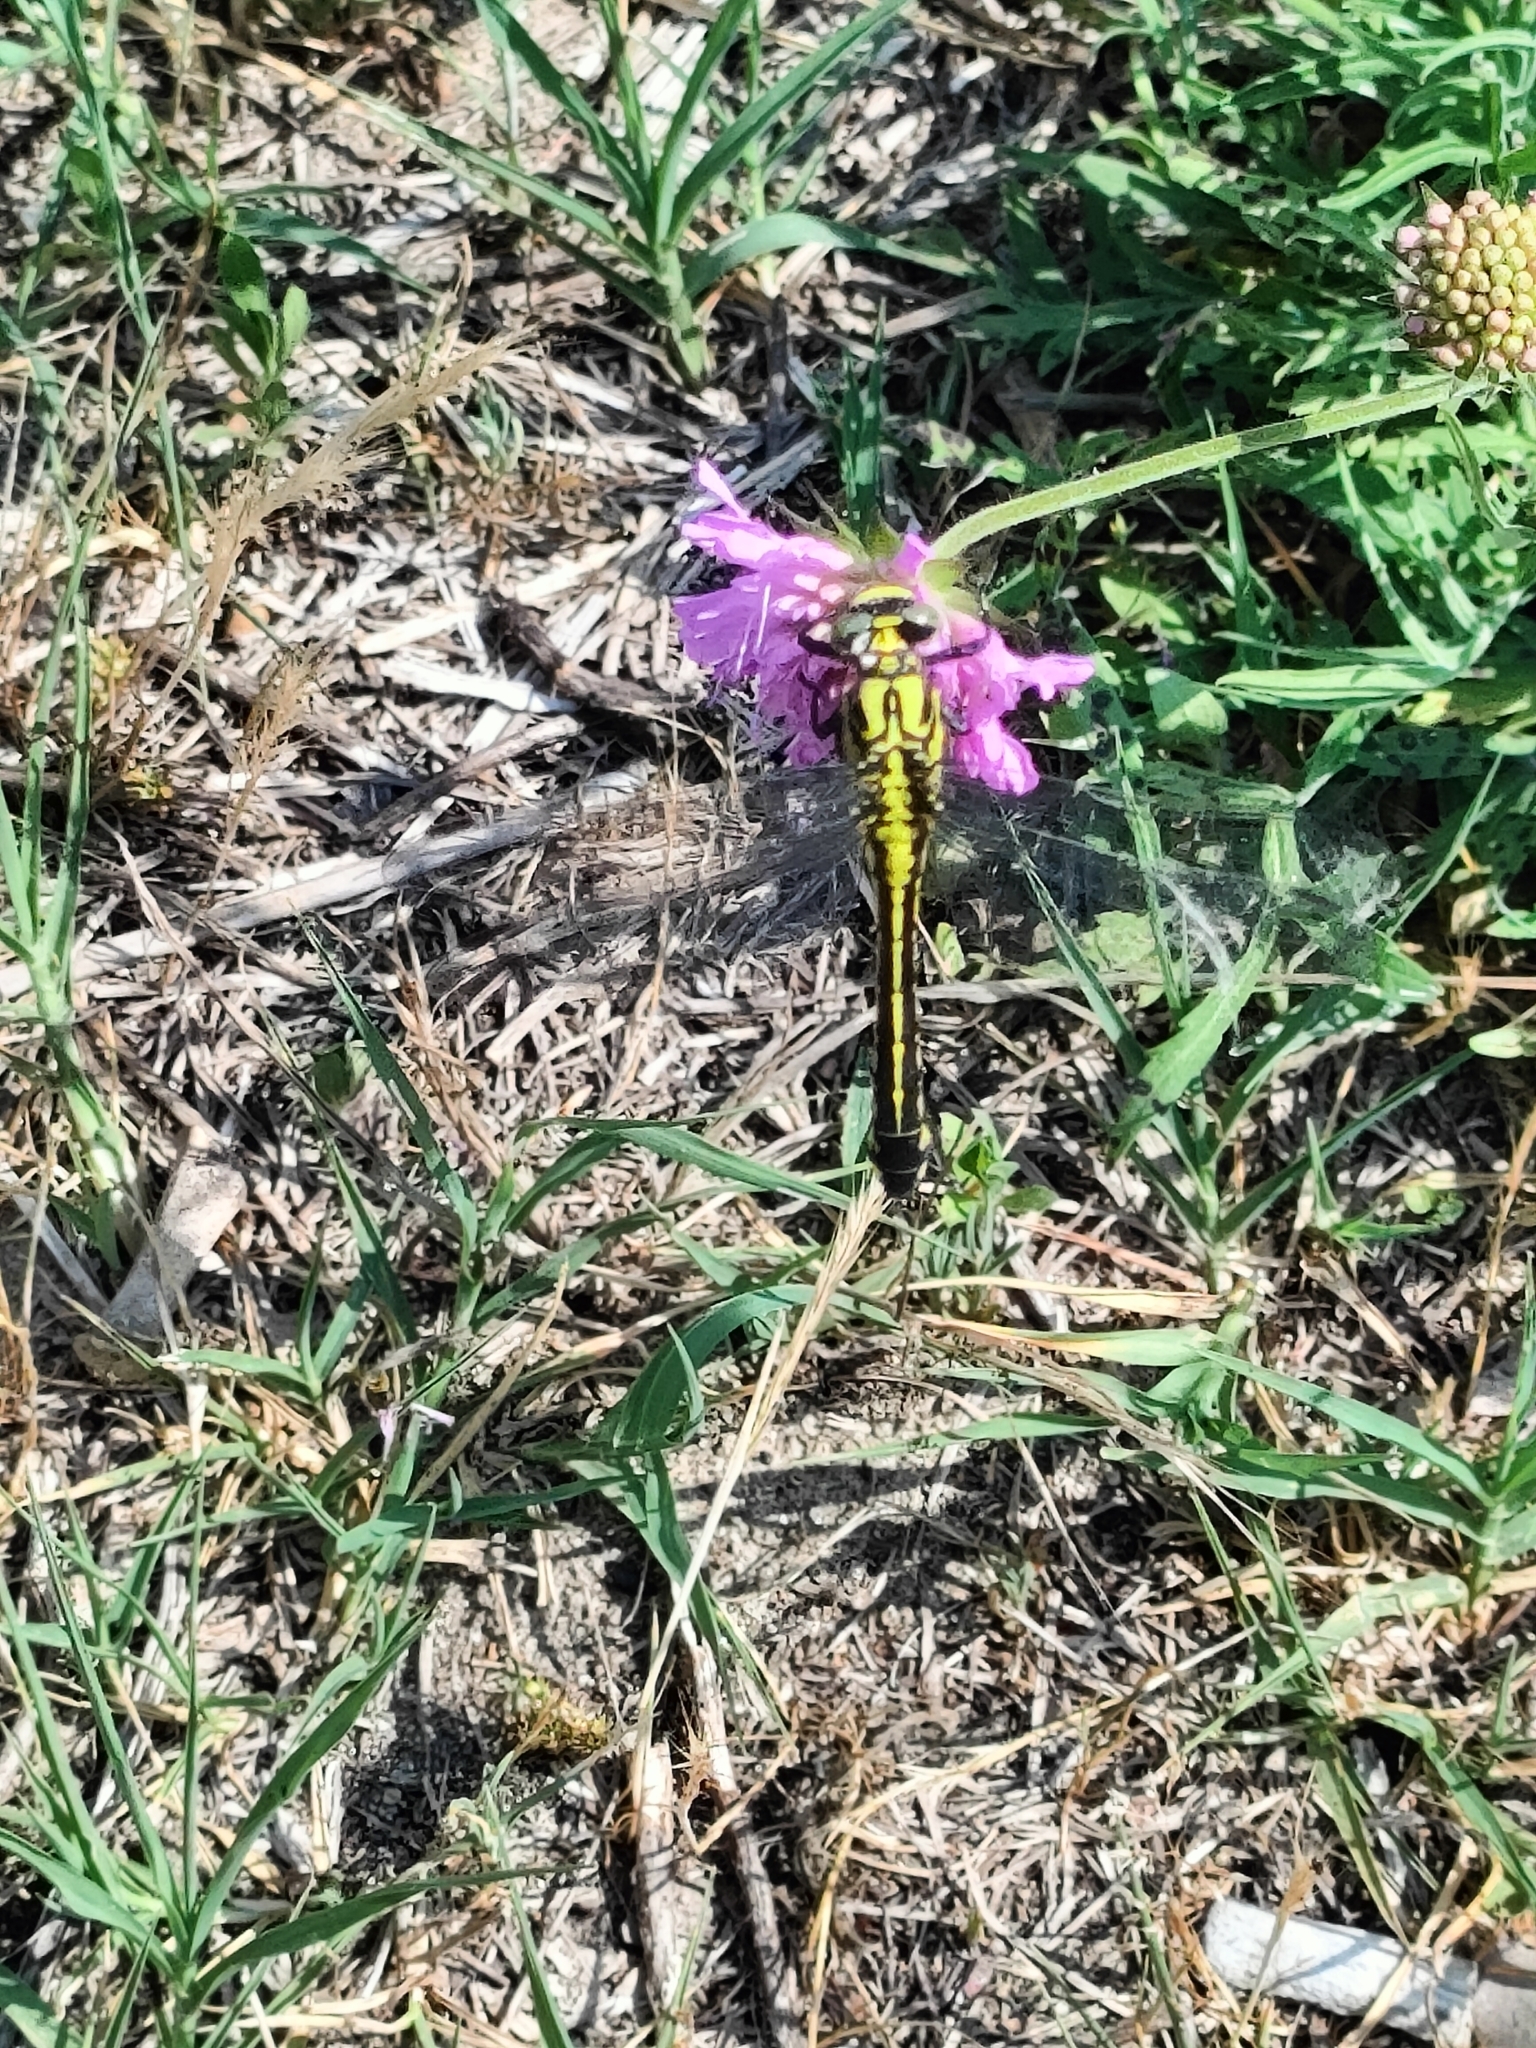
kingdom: Animalia
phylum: Arthropoda
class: Insecta
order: Odonata
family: Gomphidae
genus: Gomphus
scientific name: Gomphus vulgatissimus
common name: Club-tailed dragonfly
